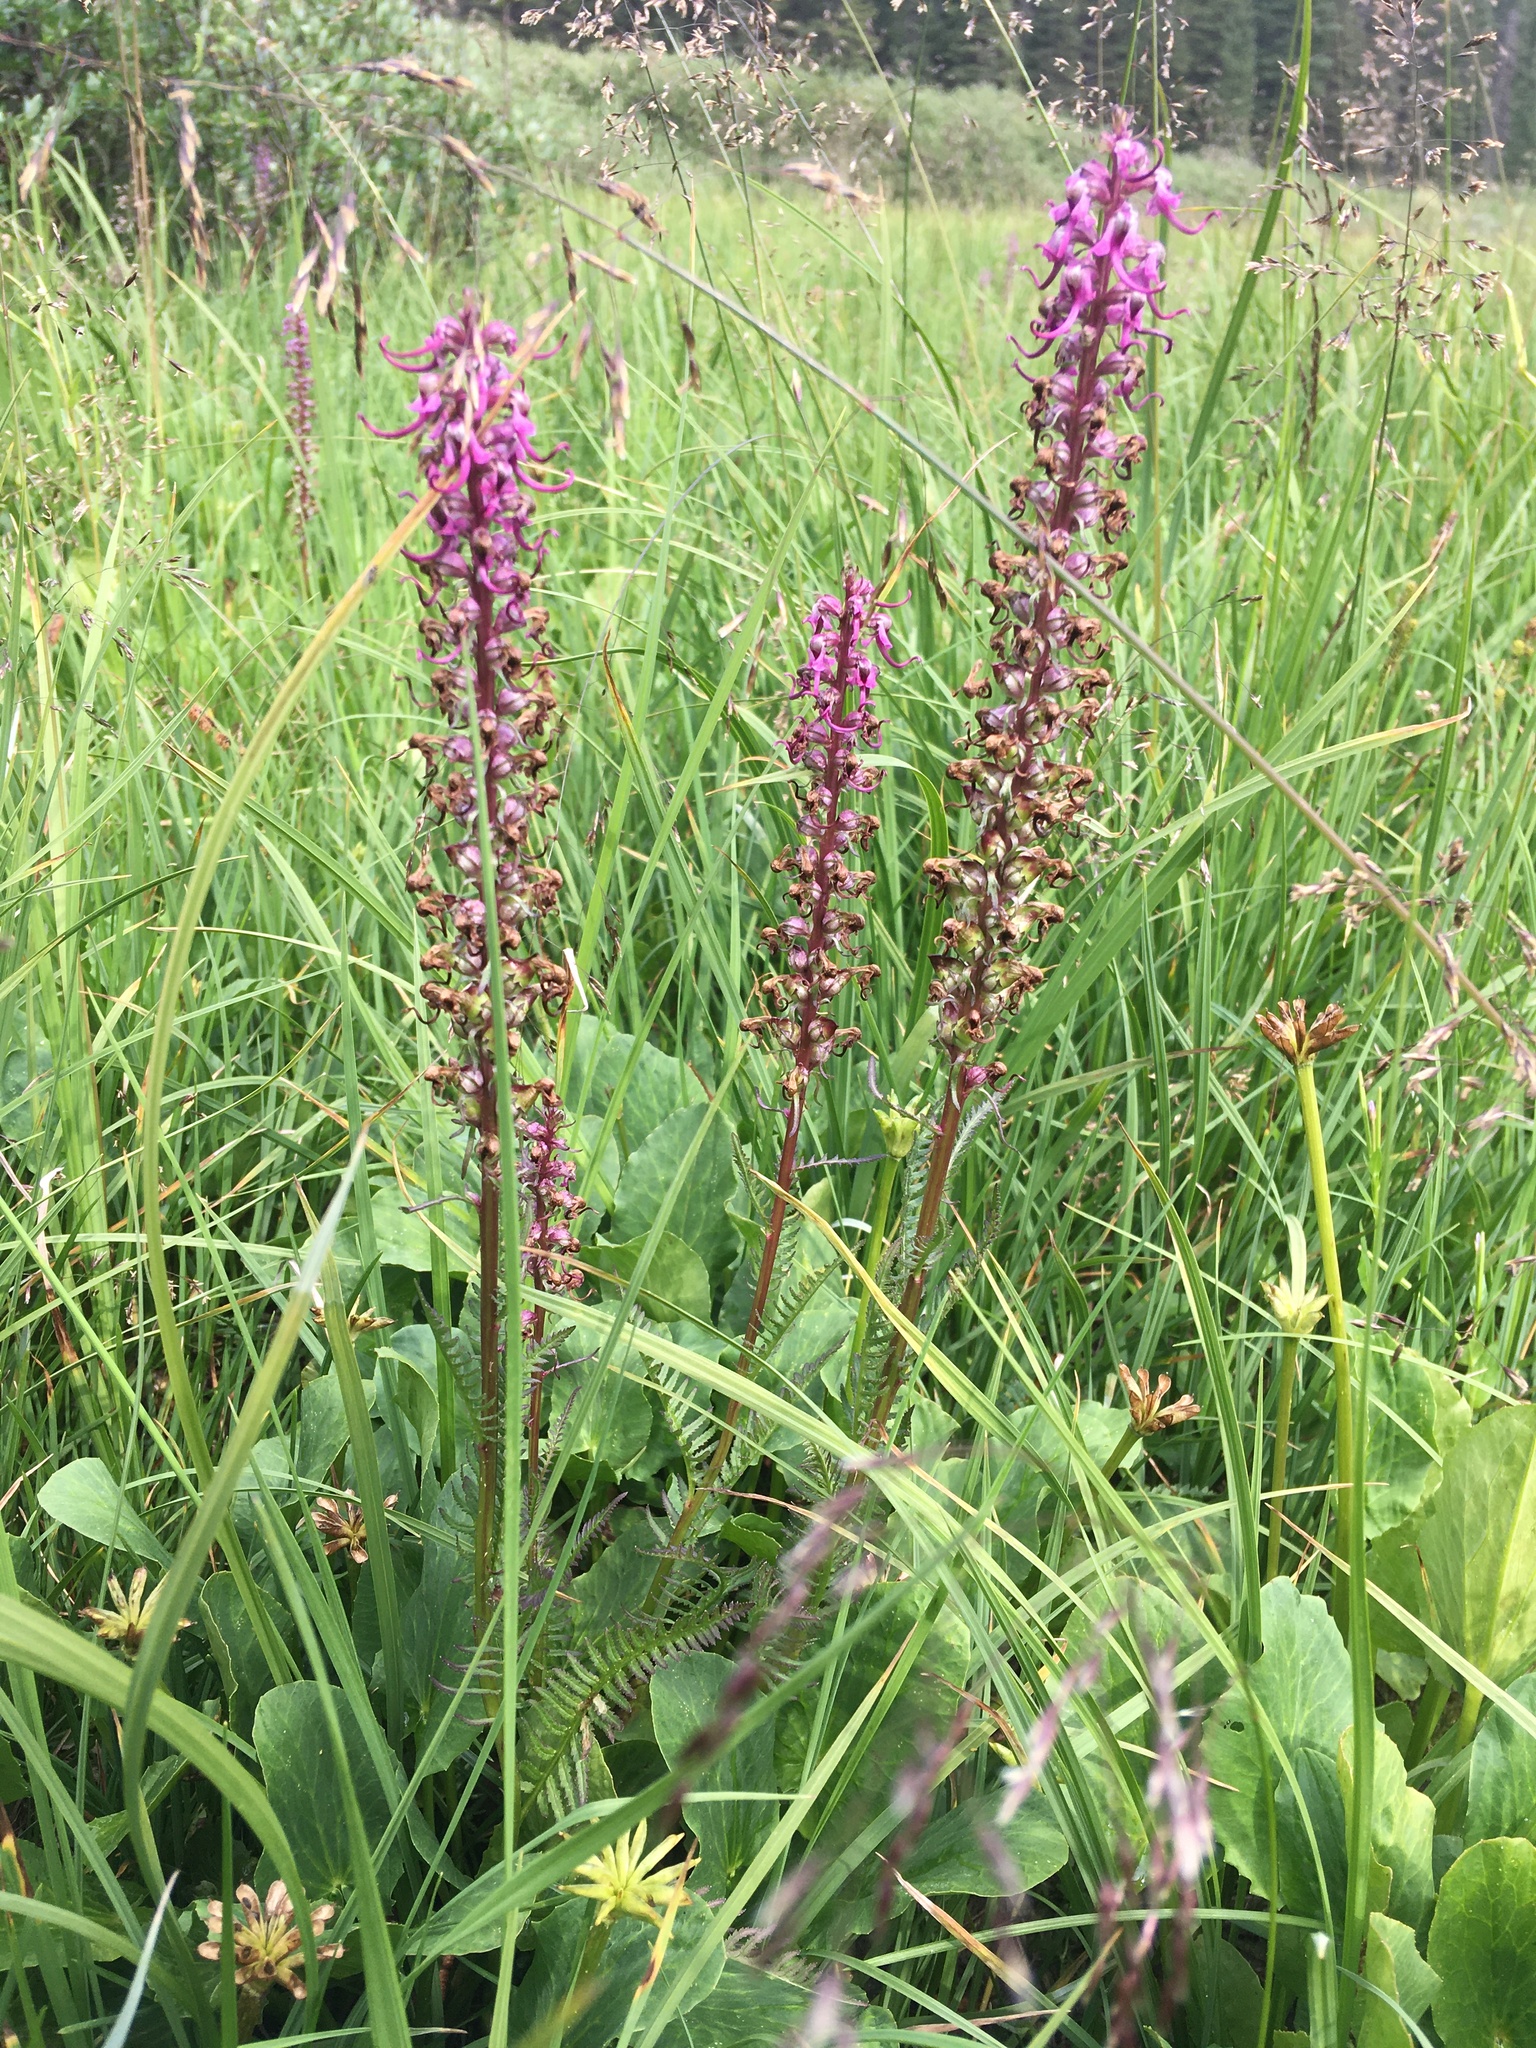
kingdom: Plantae
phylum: Tracheophyta
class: Magnoliopsida
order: Lamiales
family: Orobanchaceae
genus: Pedicularis
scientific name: Pedicularis groenlandica
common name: Elephant's-head
